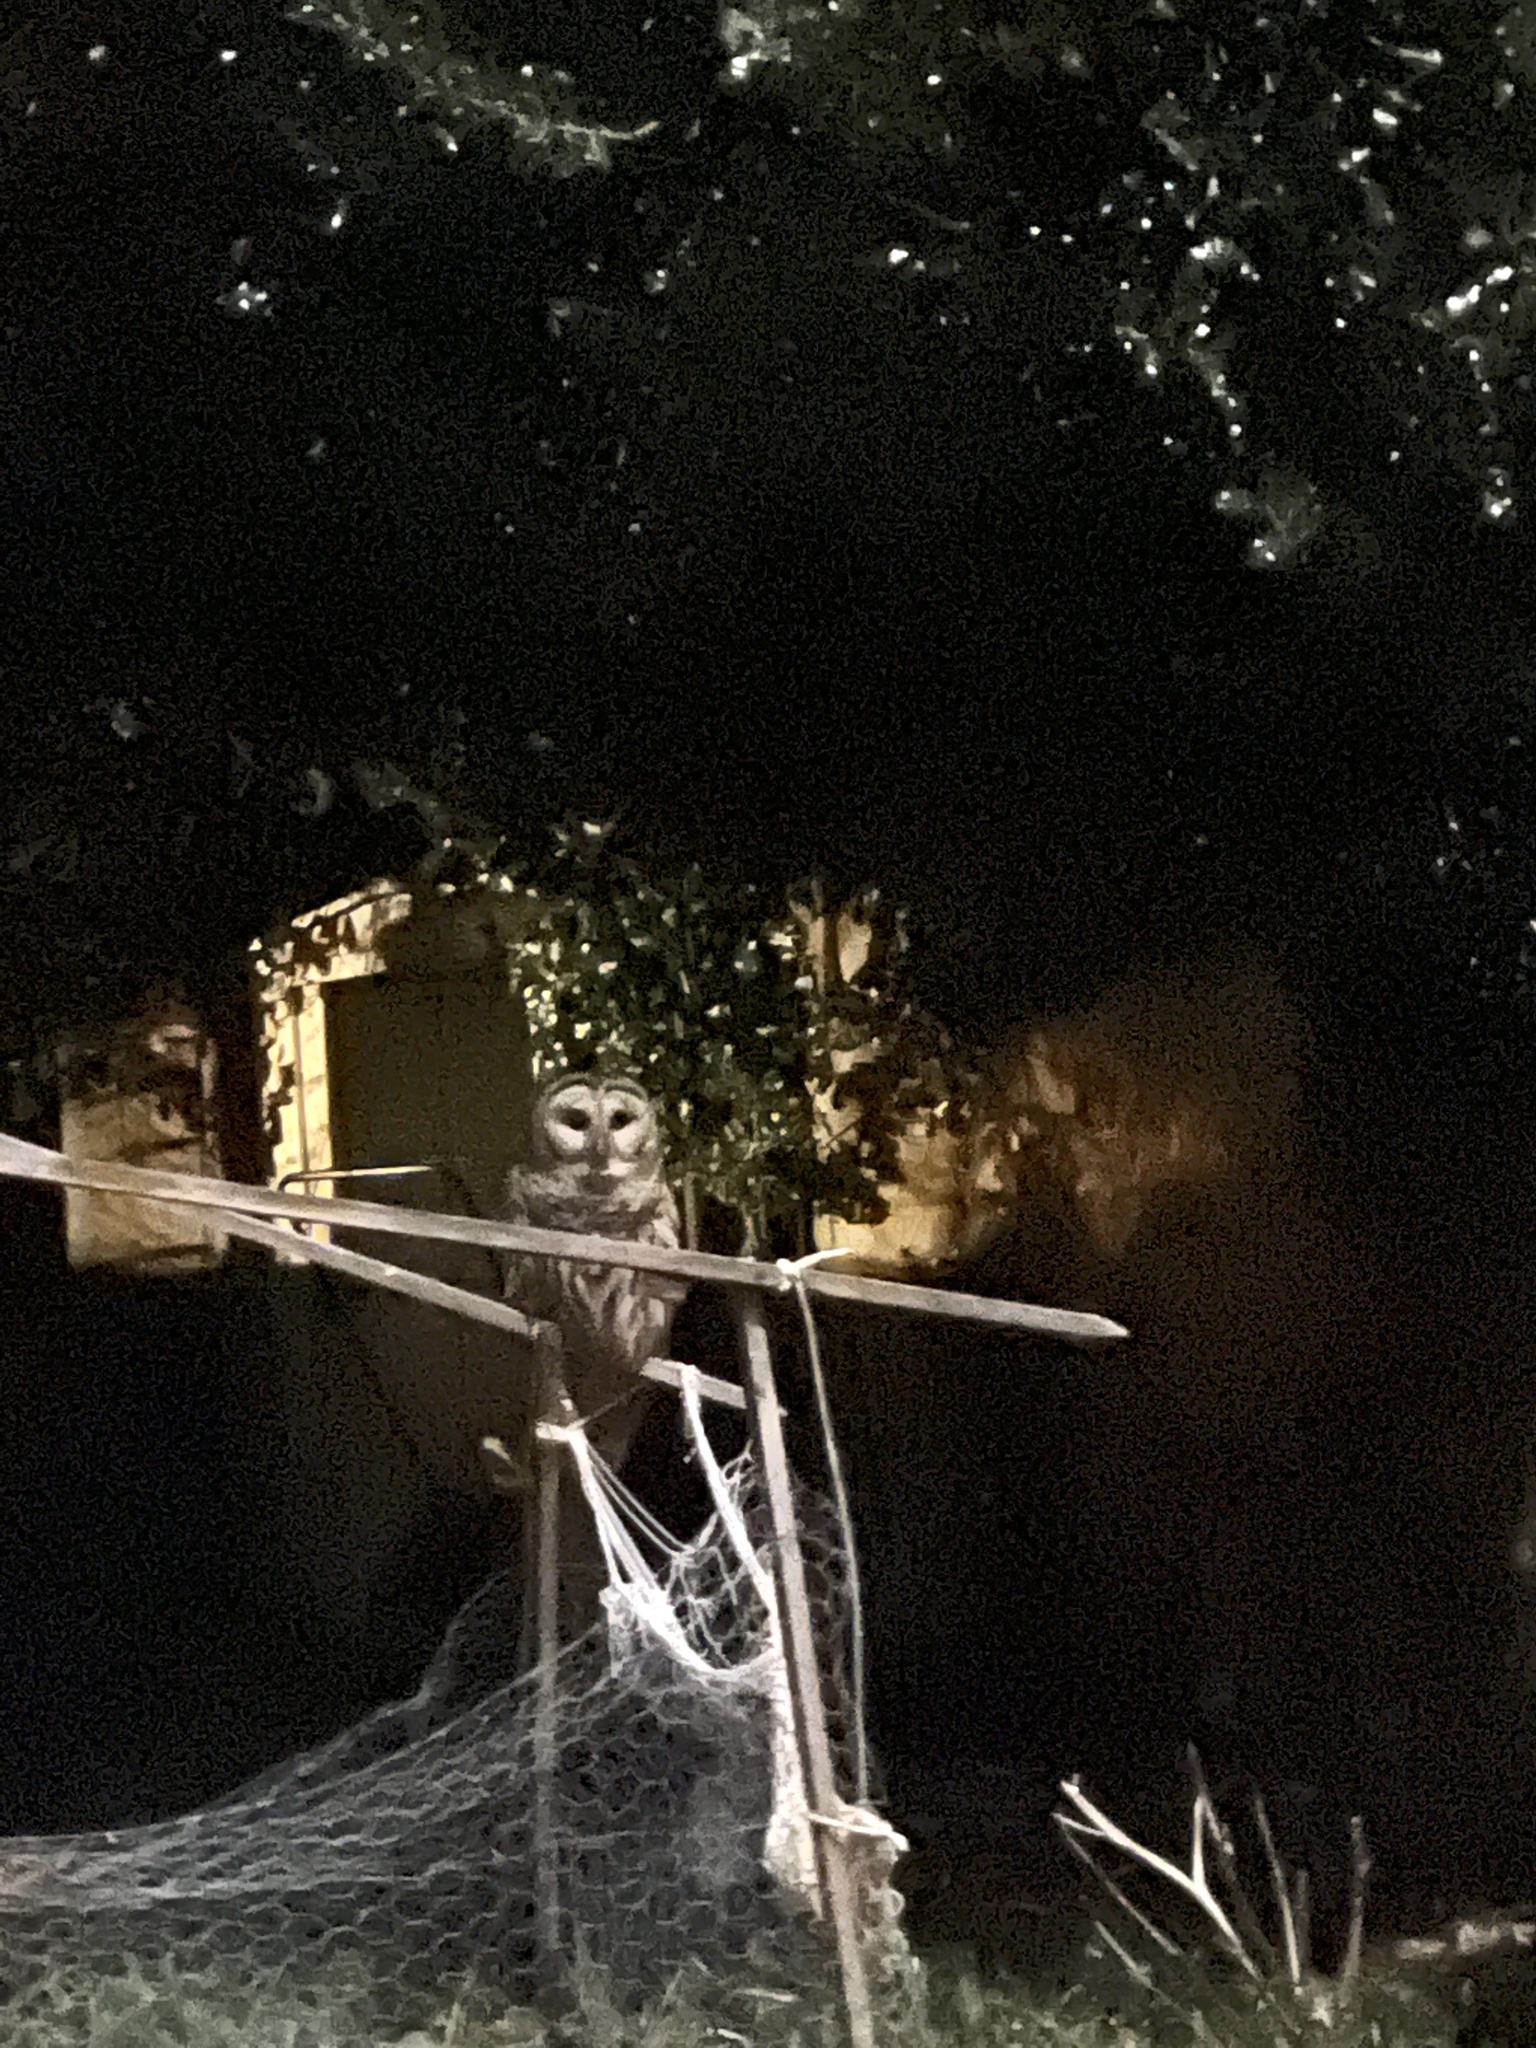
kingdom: Animalia
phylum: Chordata
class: Aves
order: Strigiformes
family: Strigidae
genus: Strix
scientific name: Strix varia
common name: Barred owl
